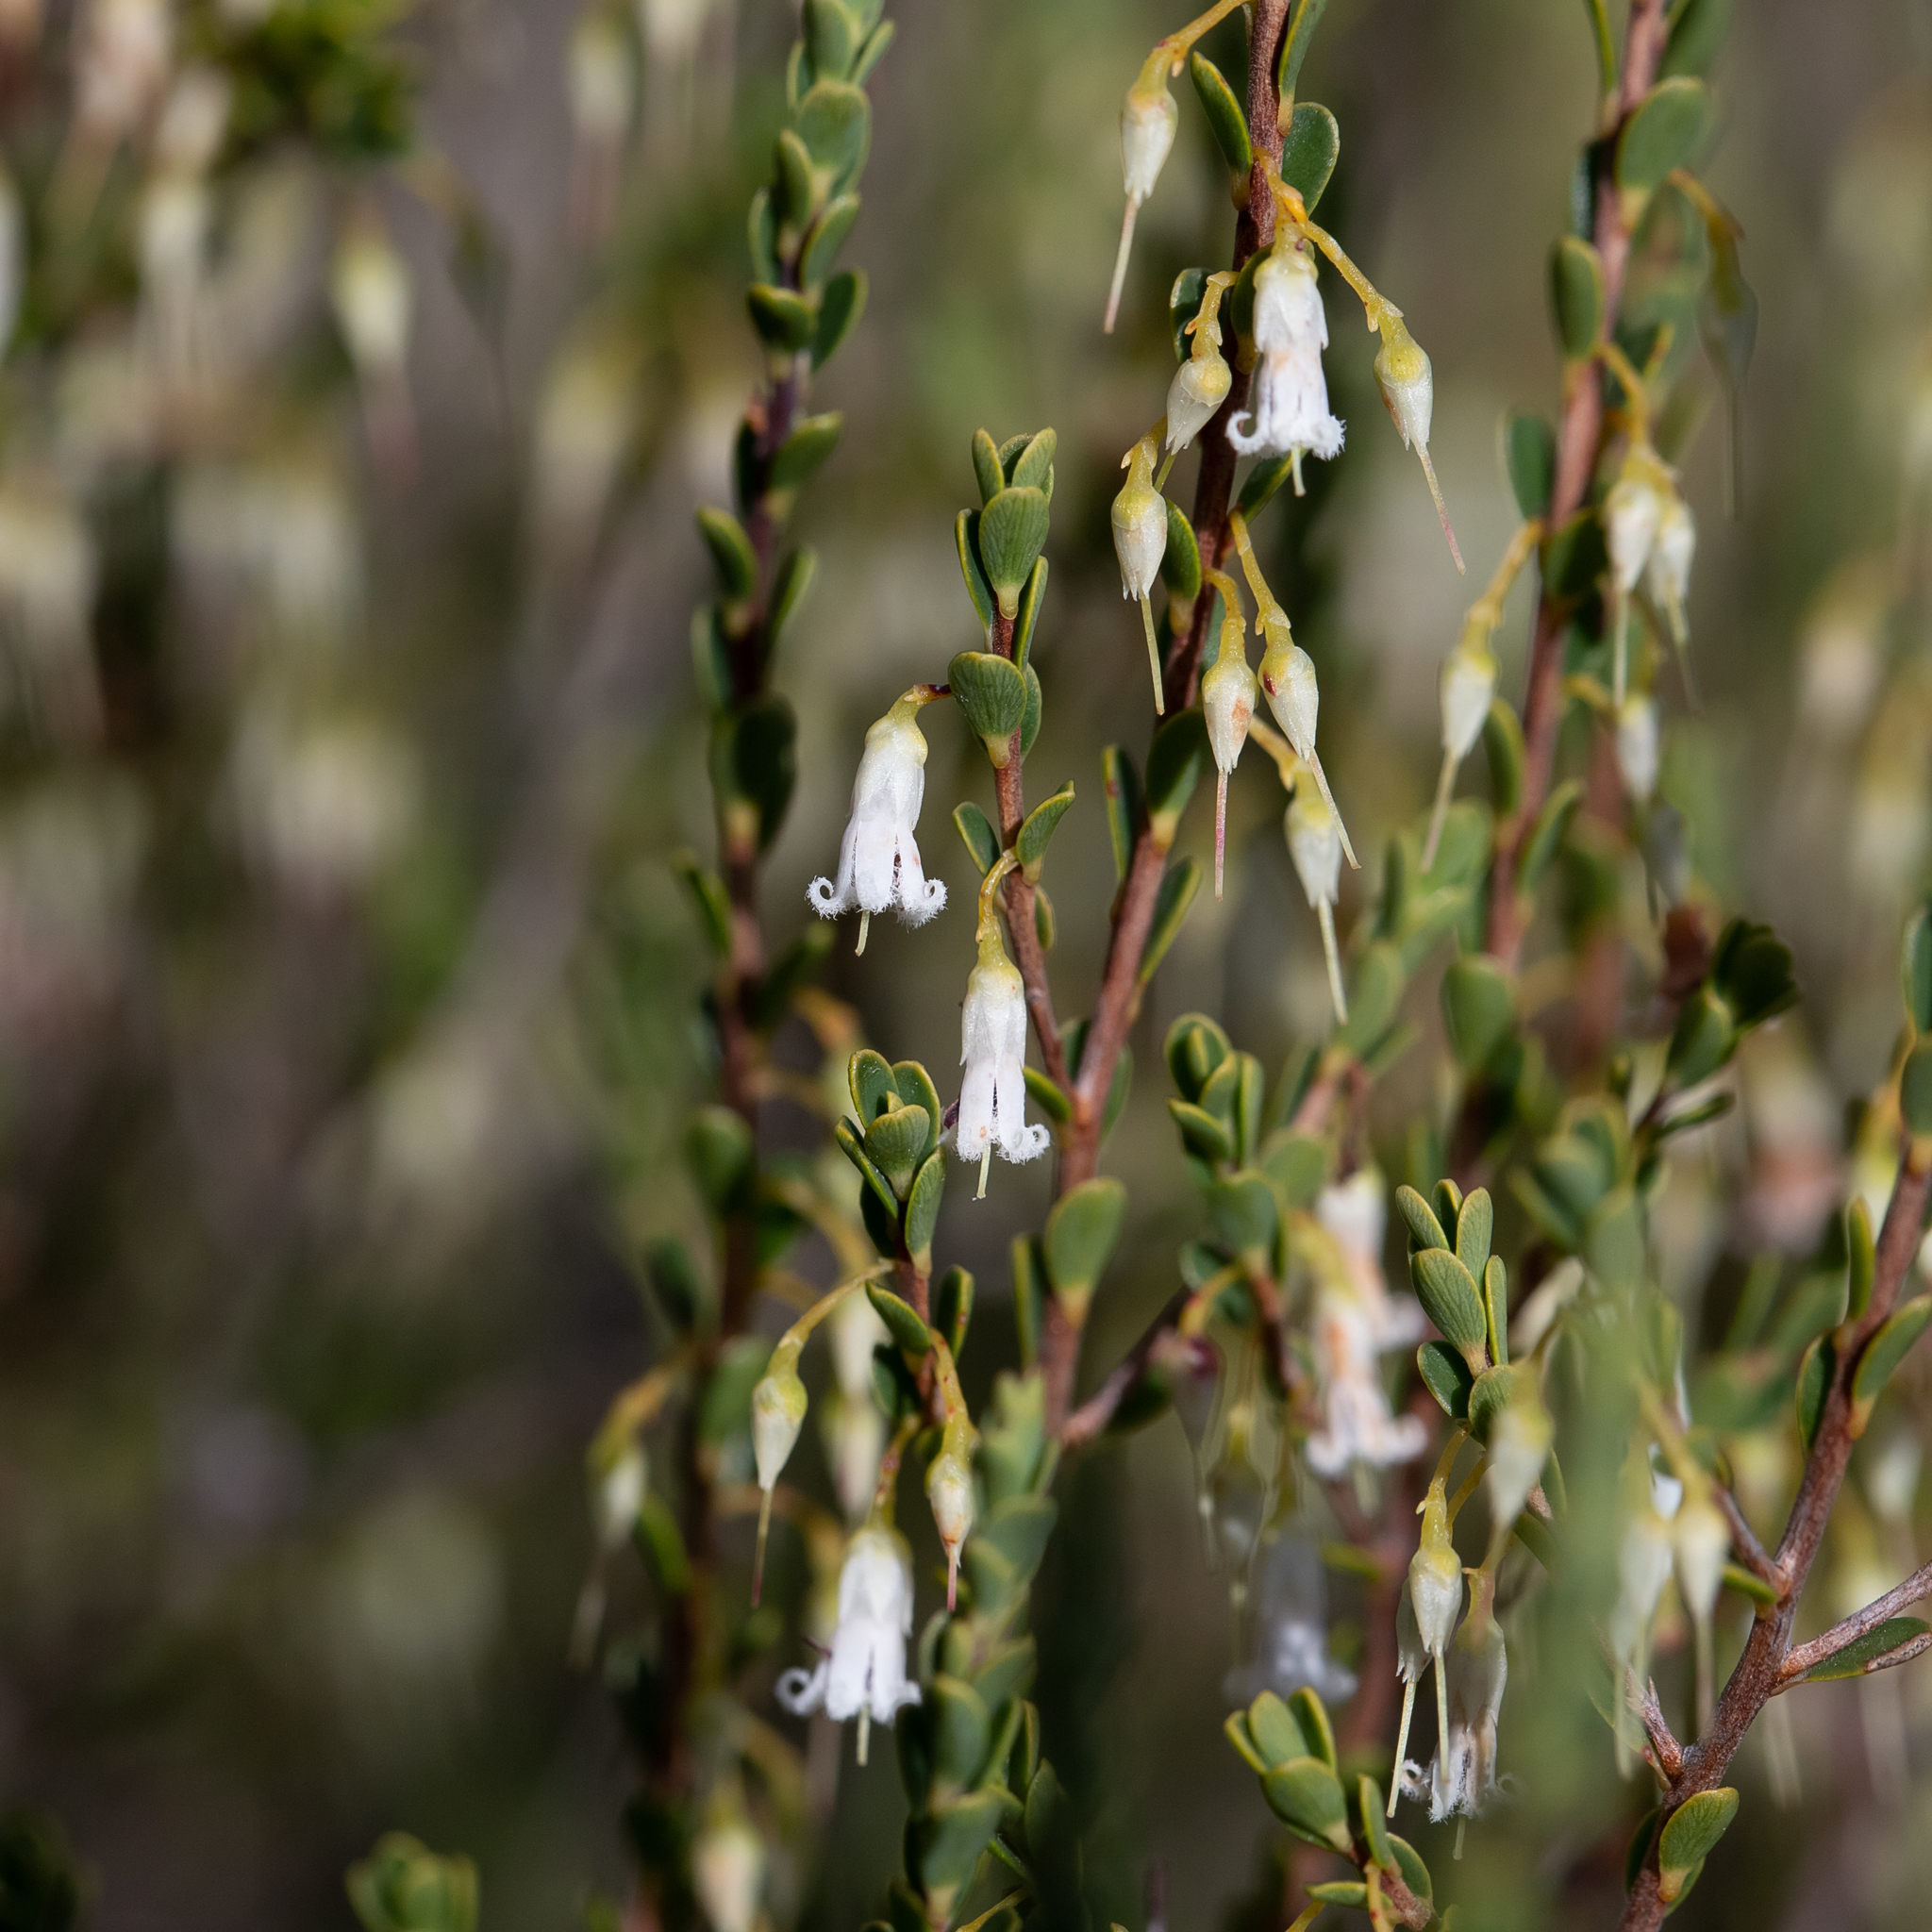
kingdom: Plantae
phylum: Tracheophyta
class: Magnoliopsida
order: Ericales
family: Ericaceae
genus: Styphelia
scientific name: Styphelia woodsii
